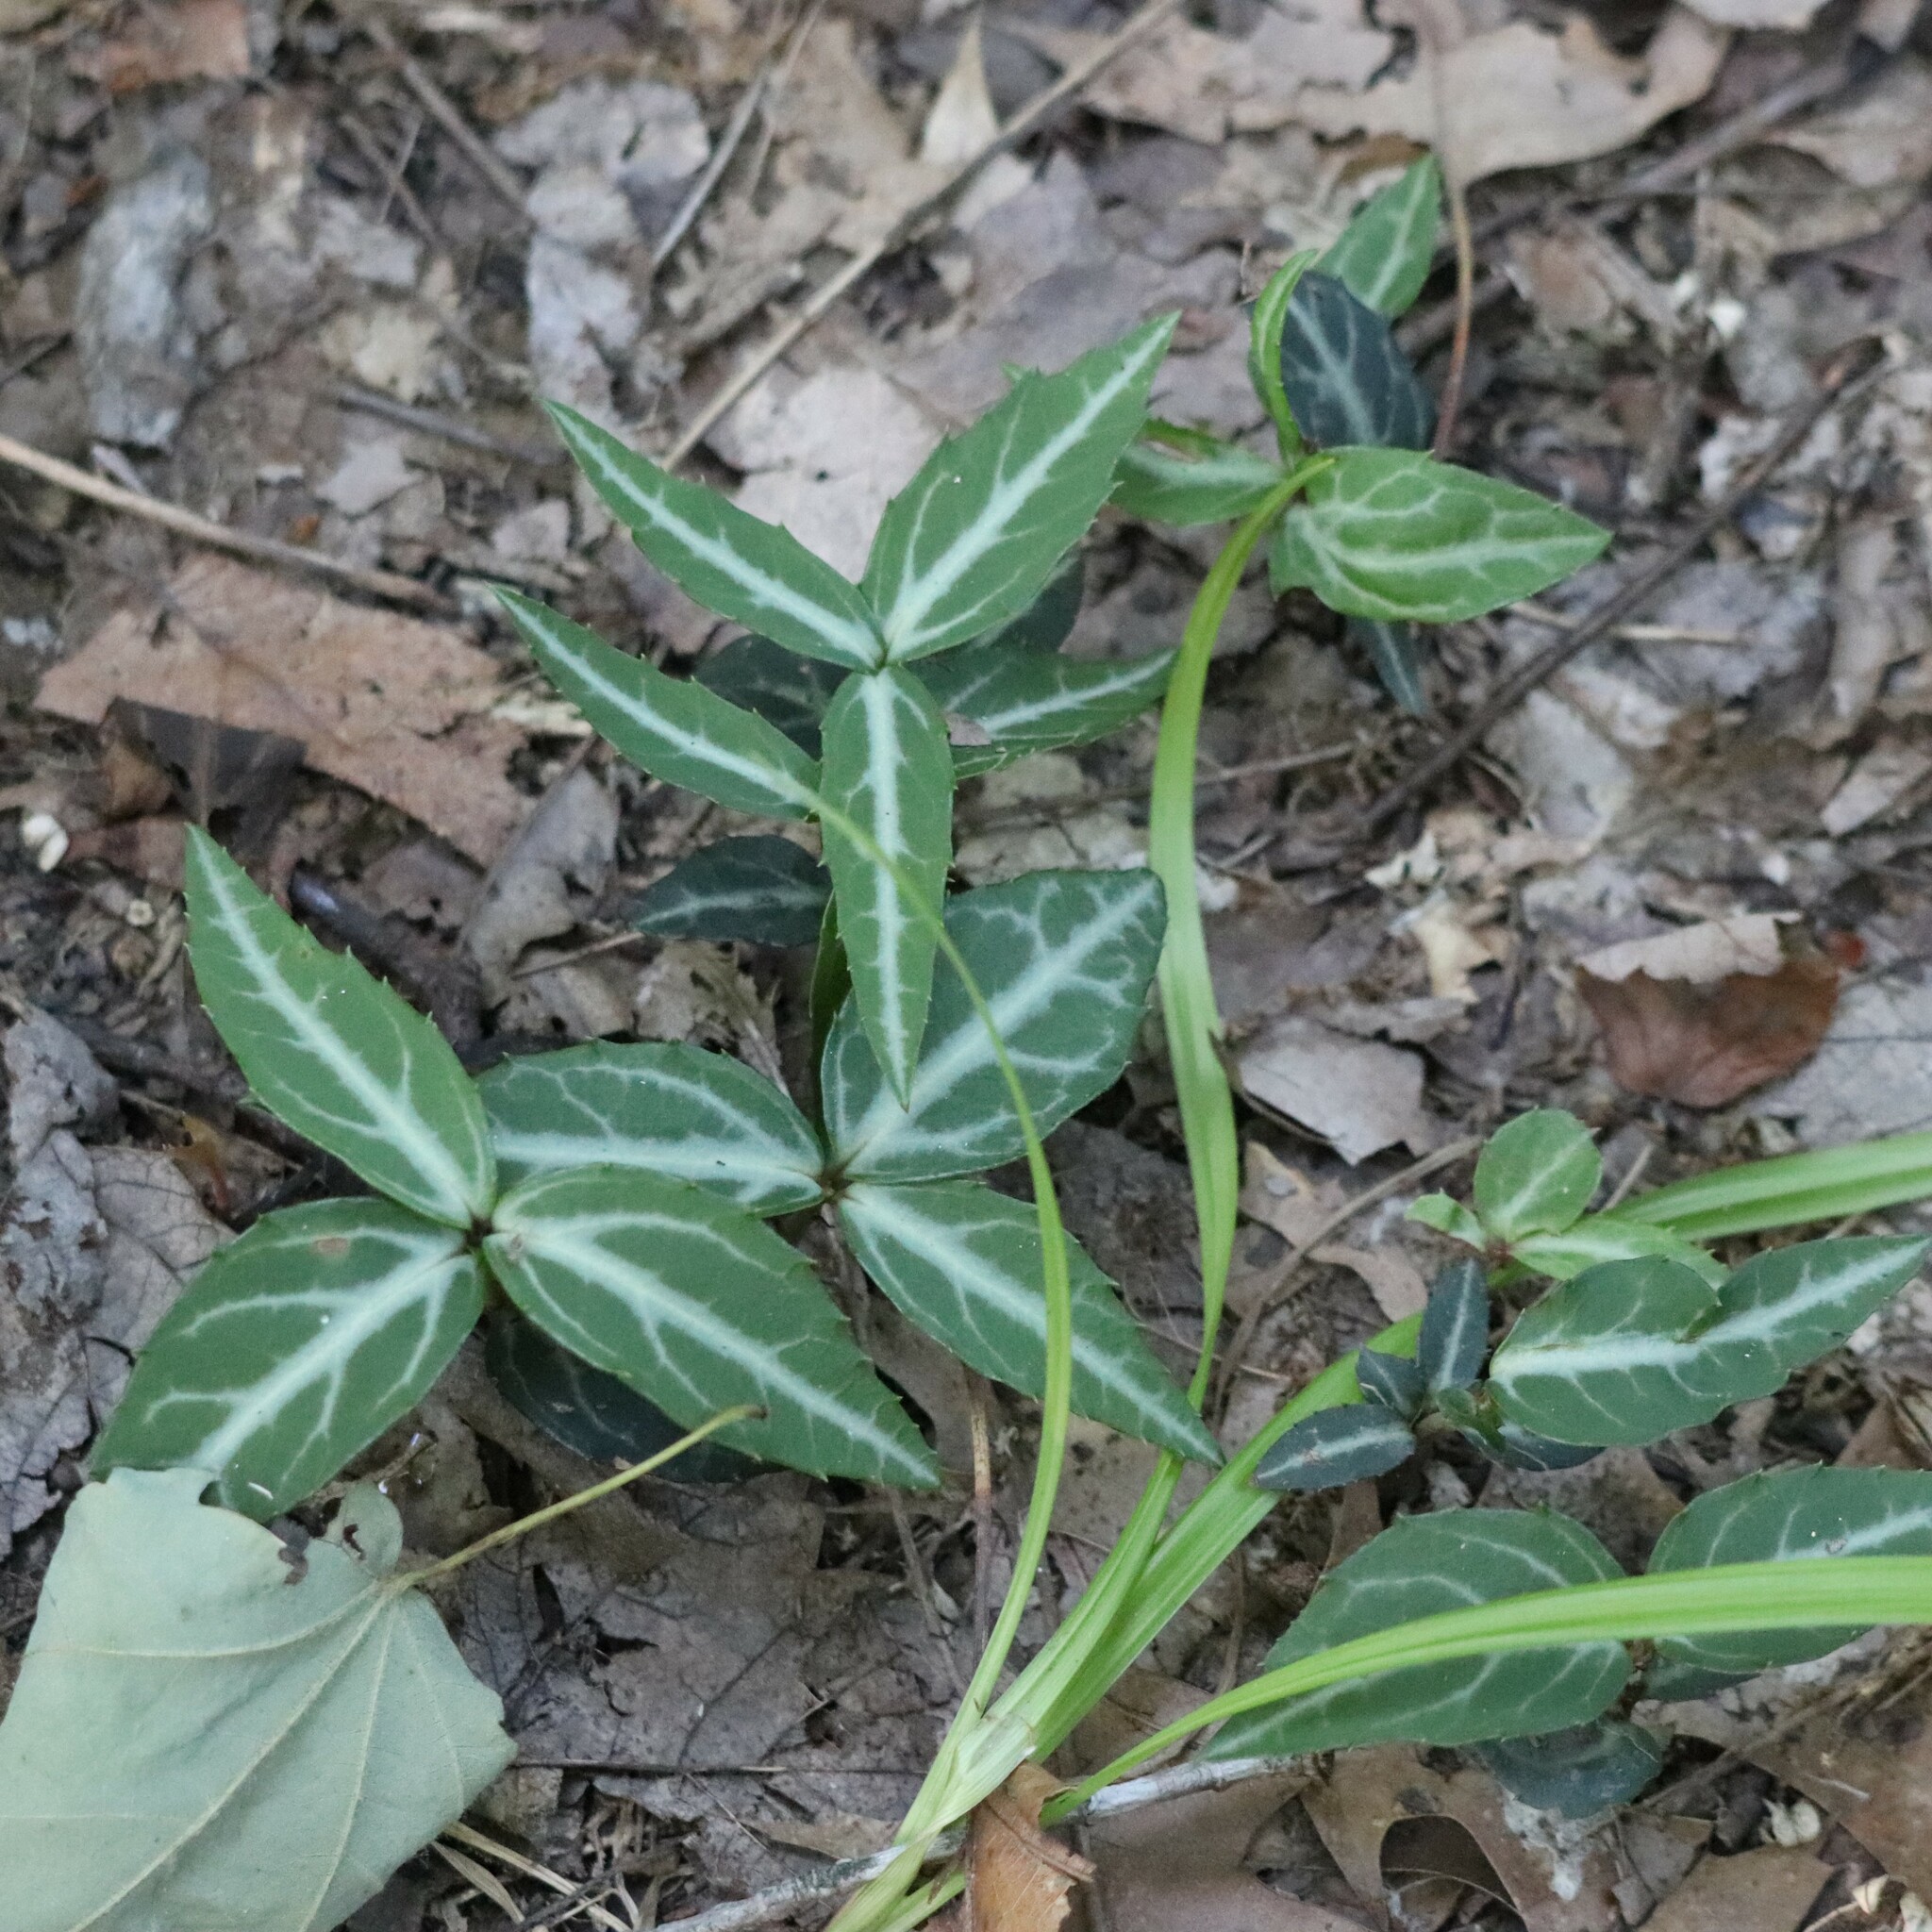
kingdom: Plantae
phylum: Tracheophyta
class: Magnoliopsida
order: Ericales
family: Ericaceae
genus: Chimaphila
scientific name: Chimaphila maculata
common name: Spotted pipsissewa
